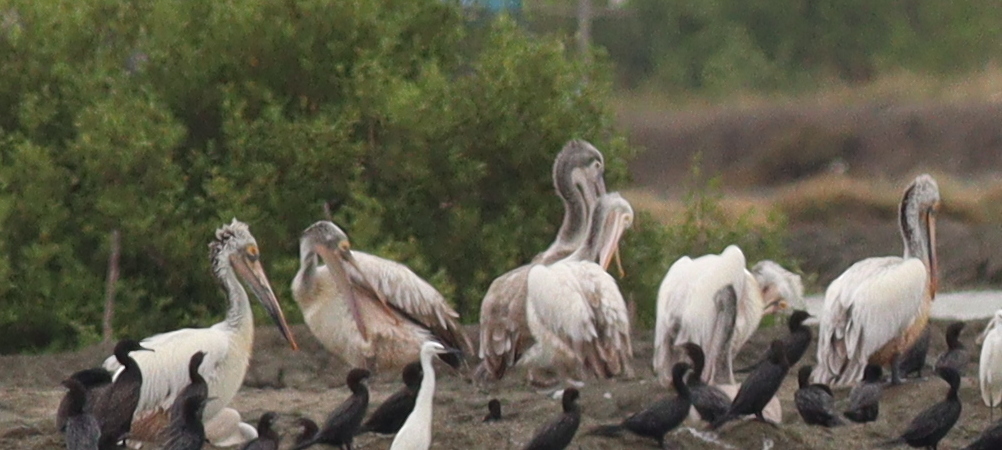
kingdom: Animalia
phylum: Chordata
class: Aves
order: Pelecaniformes
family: Pelecanidae
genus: Pelecanus
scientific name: Pelecanus philippensis
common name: Spot-billed pelican
